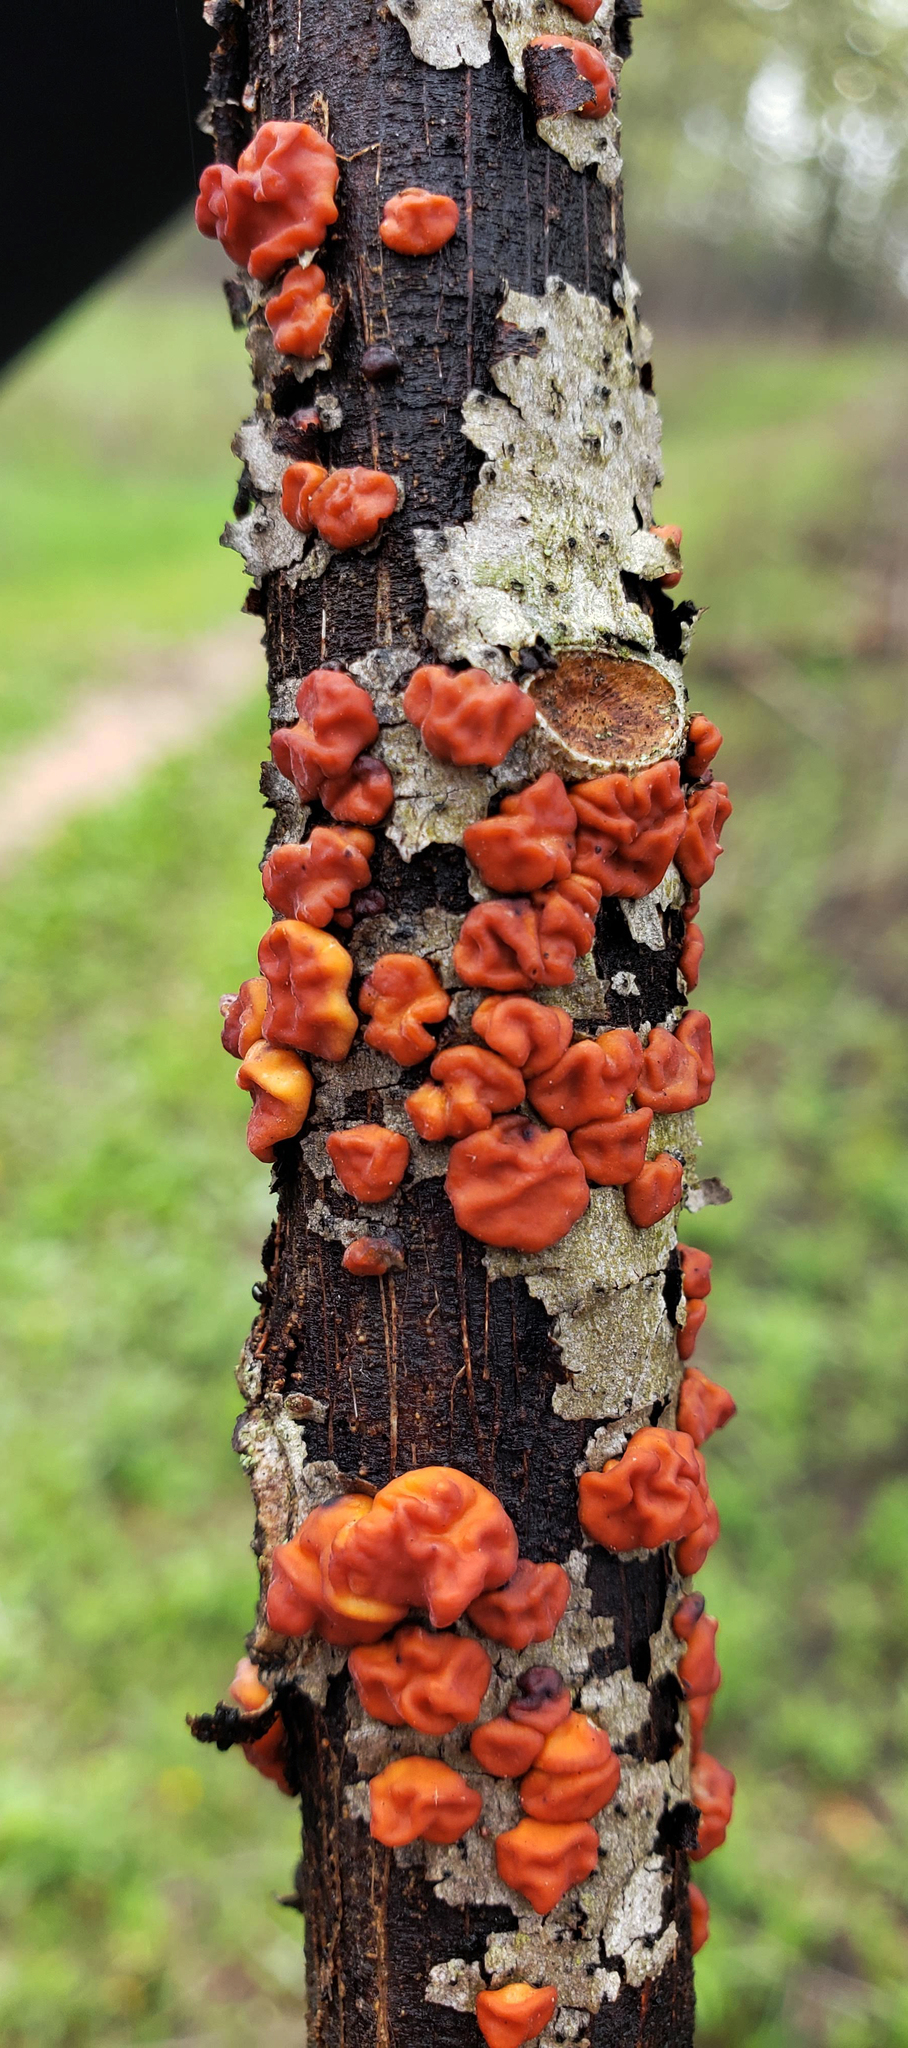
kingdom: Fungi
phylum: Basidiomycota
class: Agaricomycetes
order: Russulales
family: Peniophoraceae
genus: Peniophora
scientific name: Peniophora rufa
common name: Red tree brain fungus
